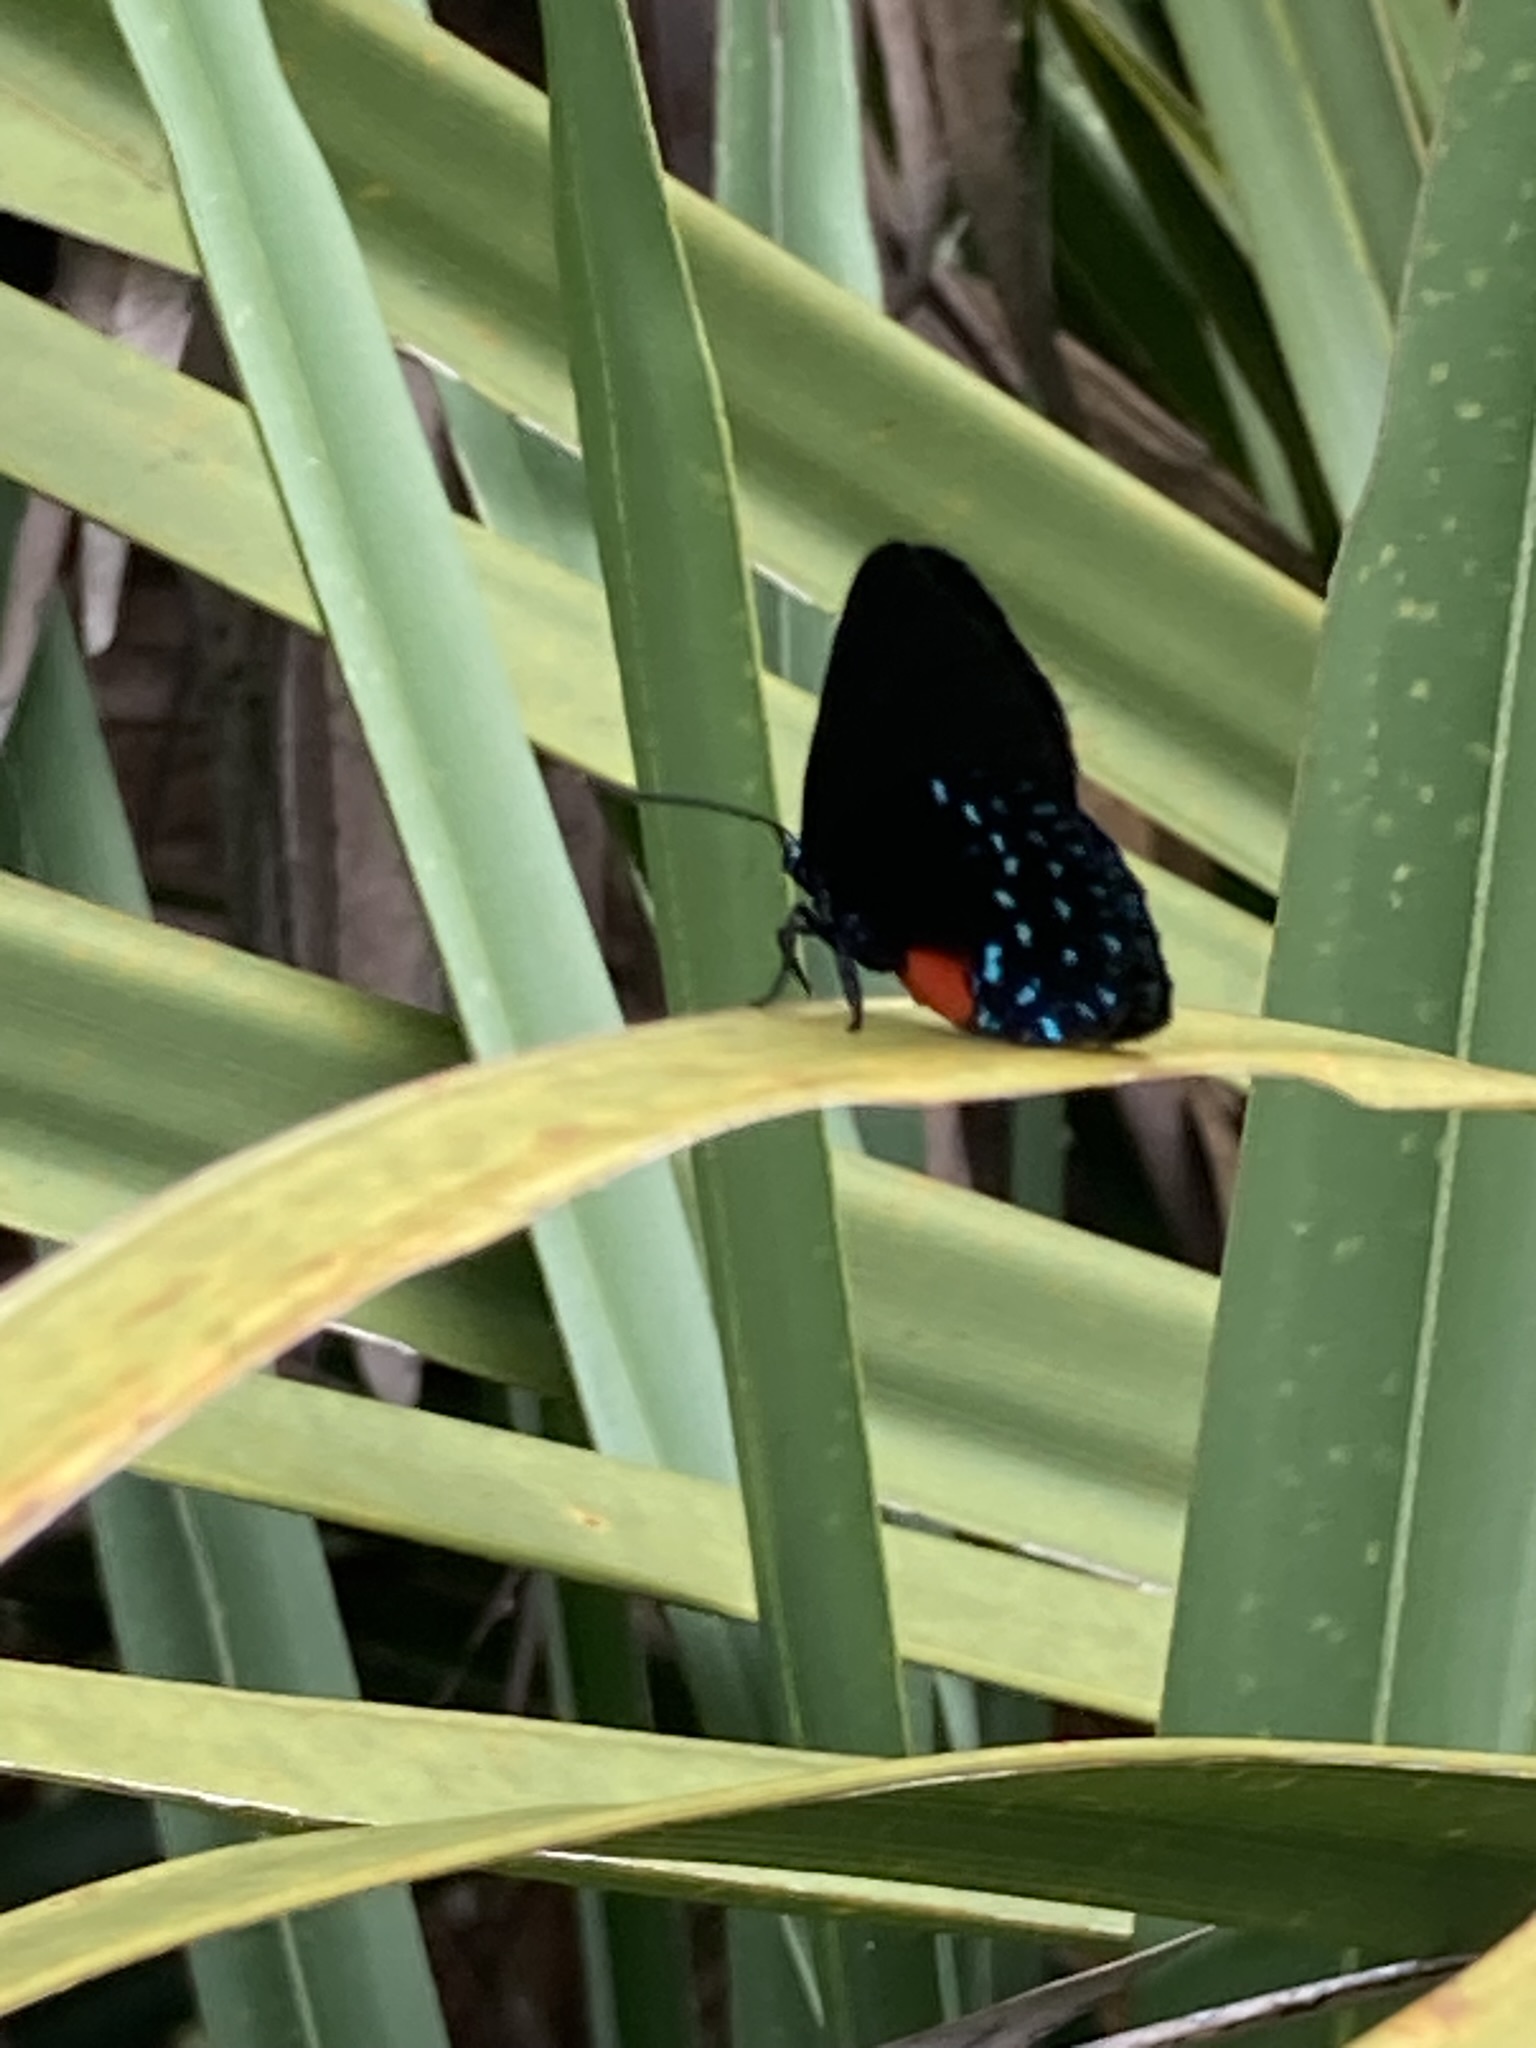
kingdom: Animalia
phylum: Arthropoda
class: Insecta
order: Lepidoptera
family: Lycaenidae
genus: Eumaeus
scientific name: Eumaeus atala
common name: Atala
